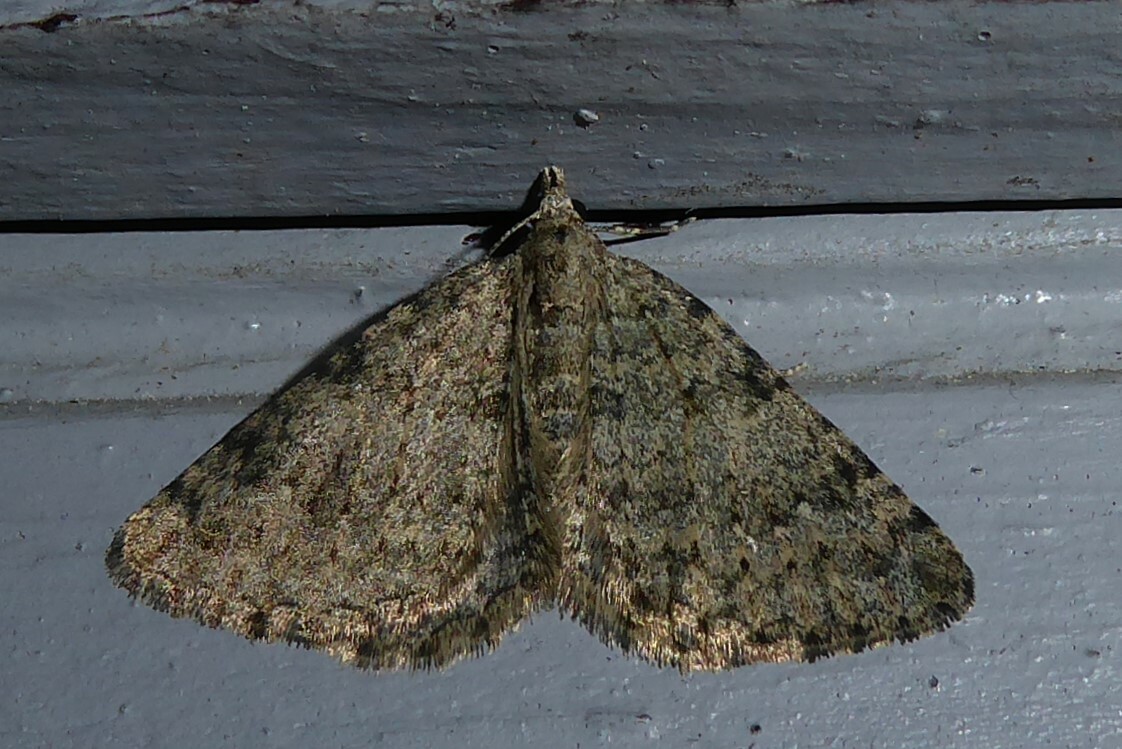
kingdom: Animalia
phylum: Arthropoda
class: Insecta
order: Lepidoptera
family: Geometridae
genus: Helastia
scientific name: Helastia corcularia
